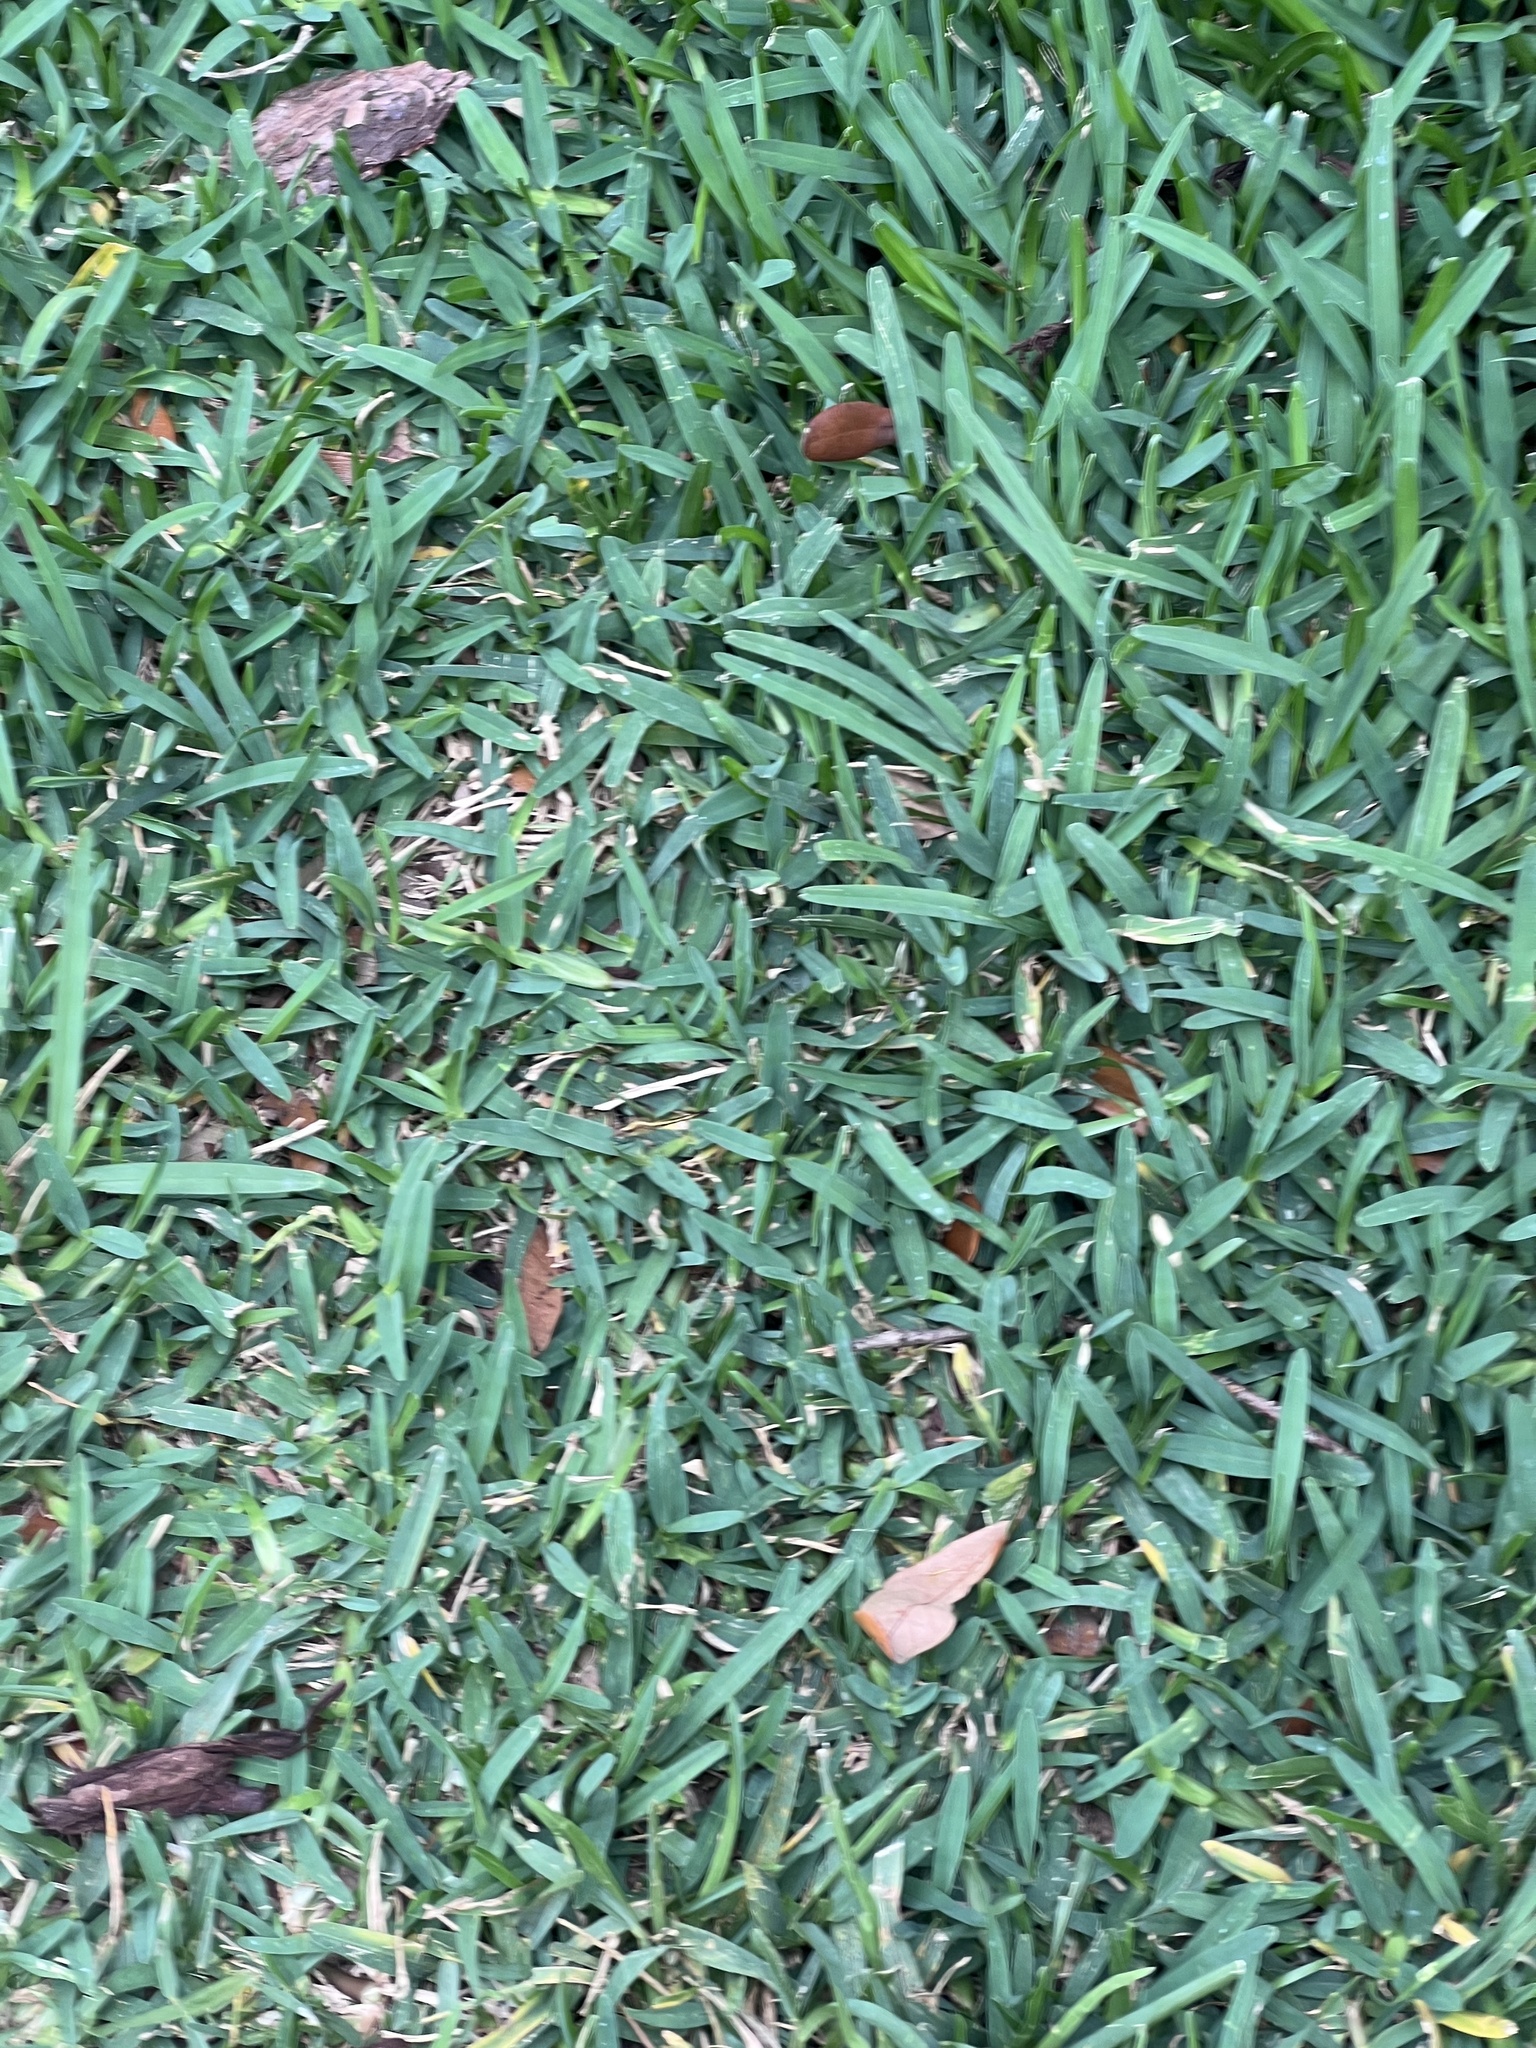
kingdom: Animalia
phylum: Arthropoda
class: Insecta
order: Odonata
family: Libellulidae
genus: Erythrodiplax
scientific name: Erythrodiplax minuscula
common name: Little blue dragonlet
